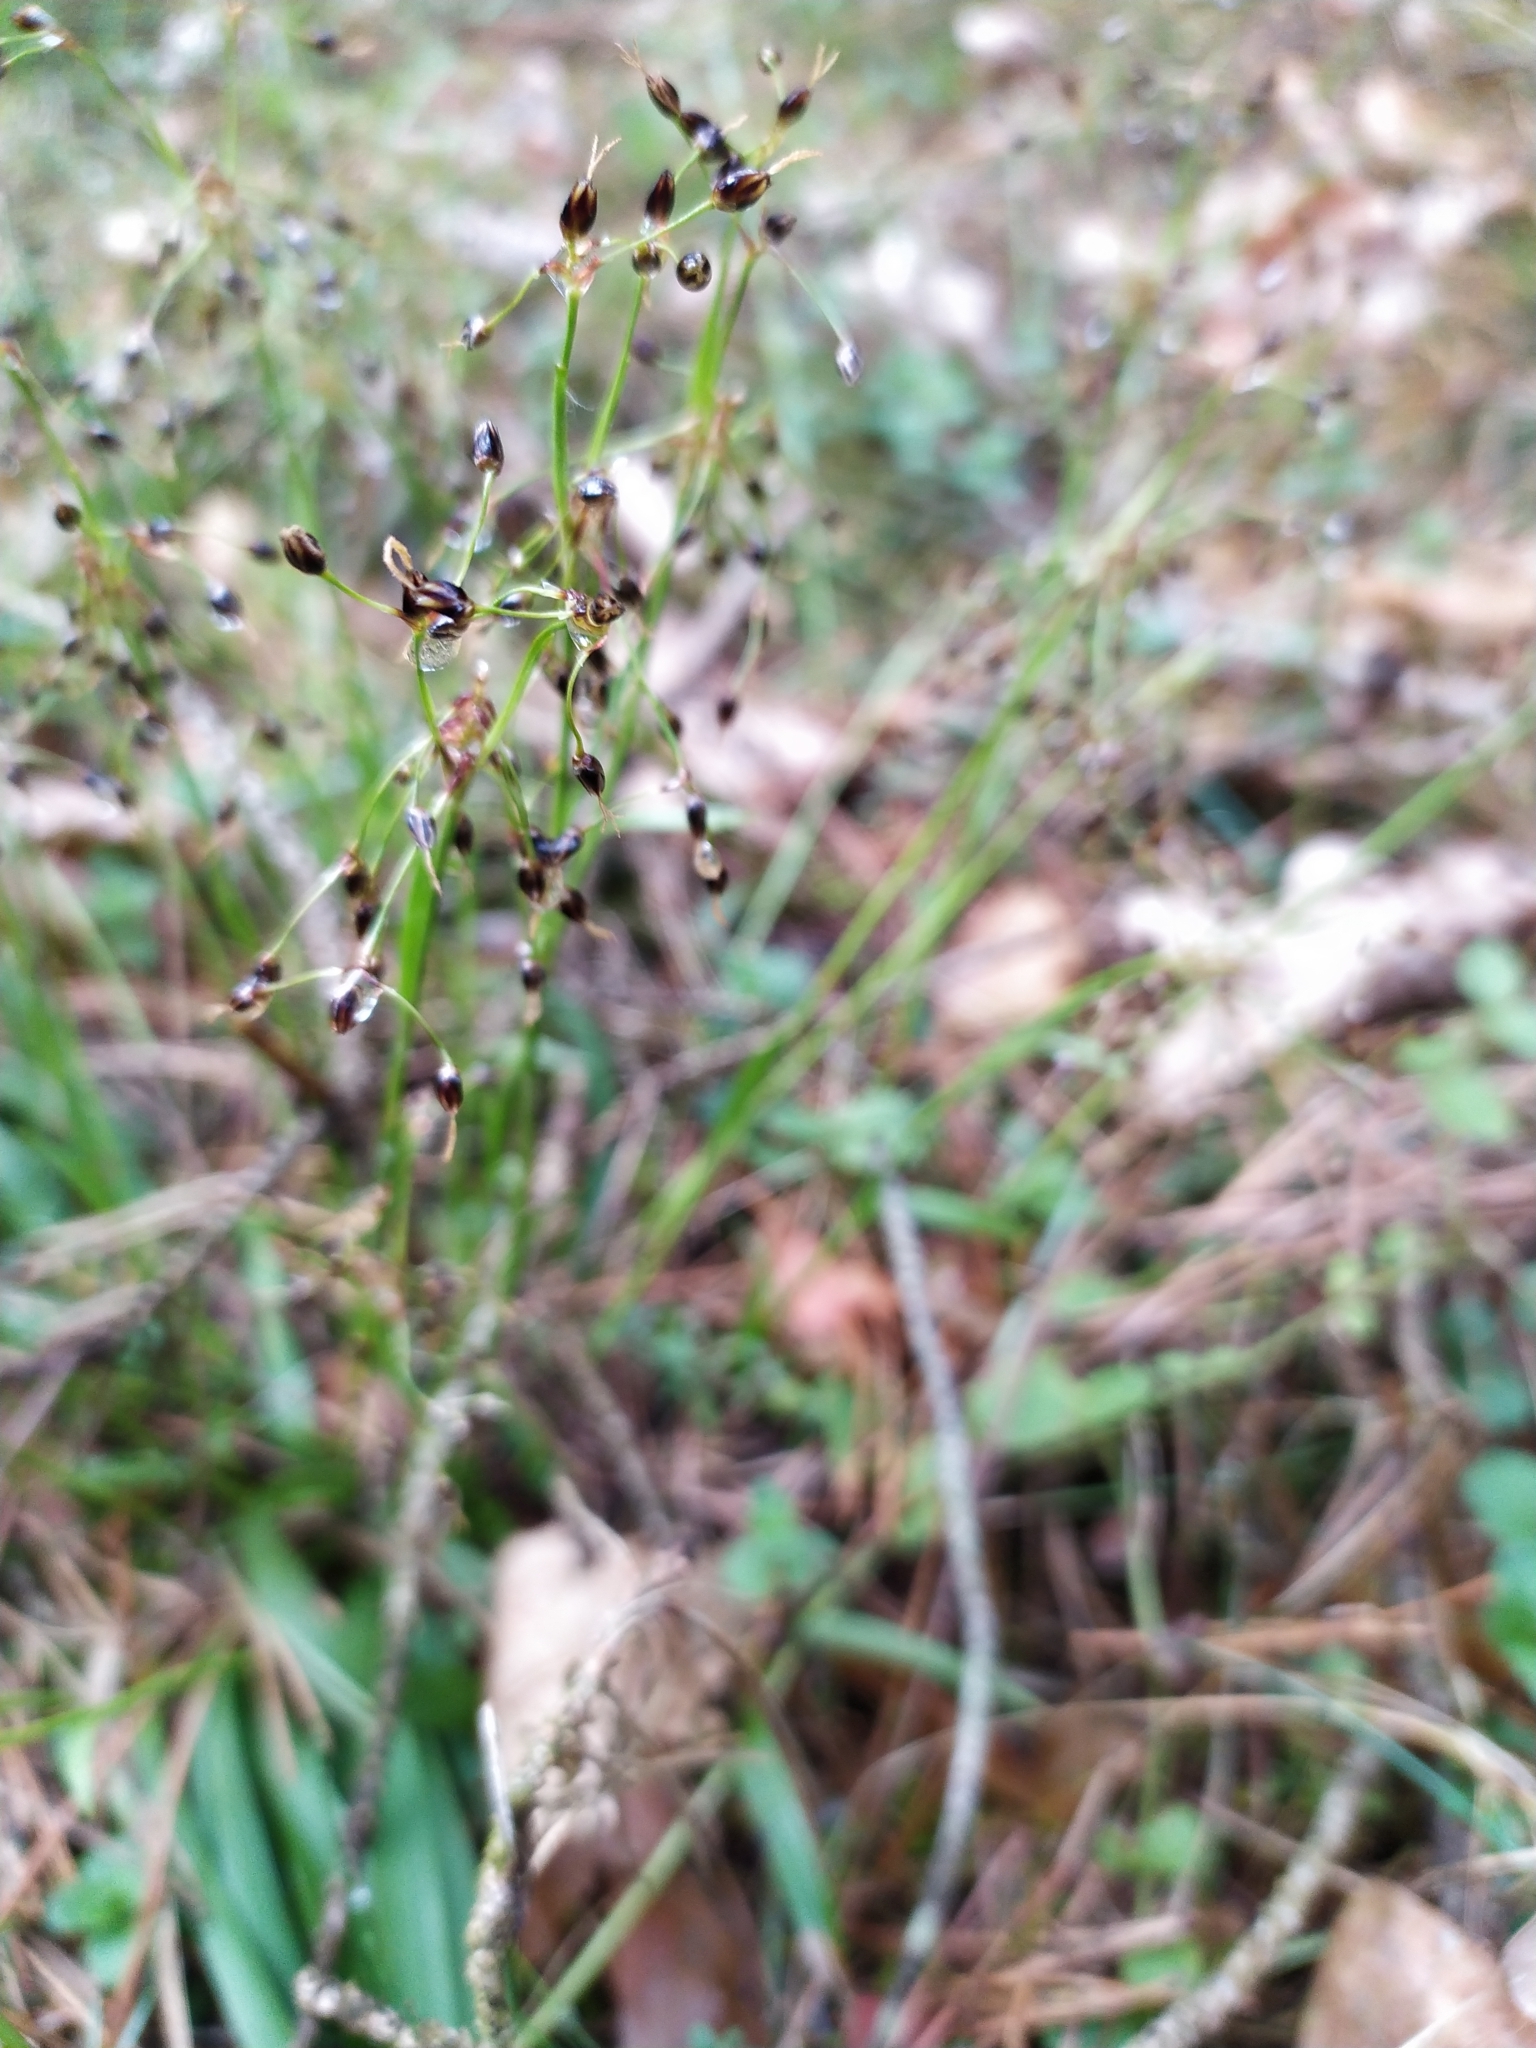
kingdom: Plantae
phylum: Tracheophyta
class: Liliopsida
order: Poales
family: Juncaceae
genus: Luzula
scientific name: Luzula pilosa
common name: Hairy wood-rush
